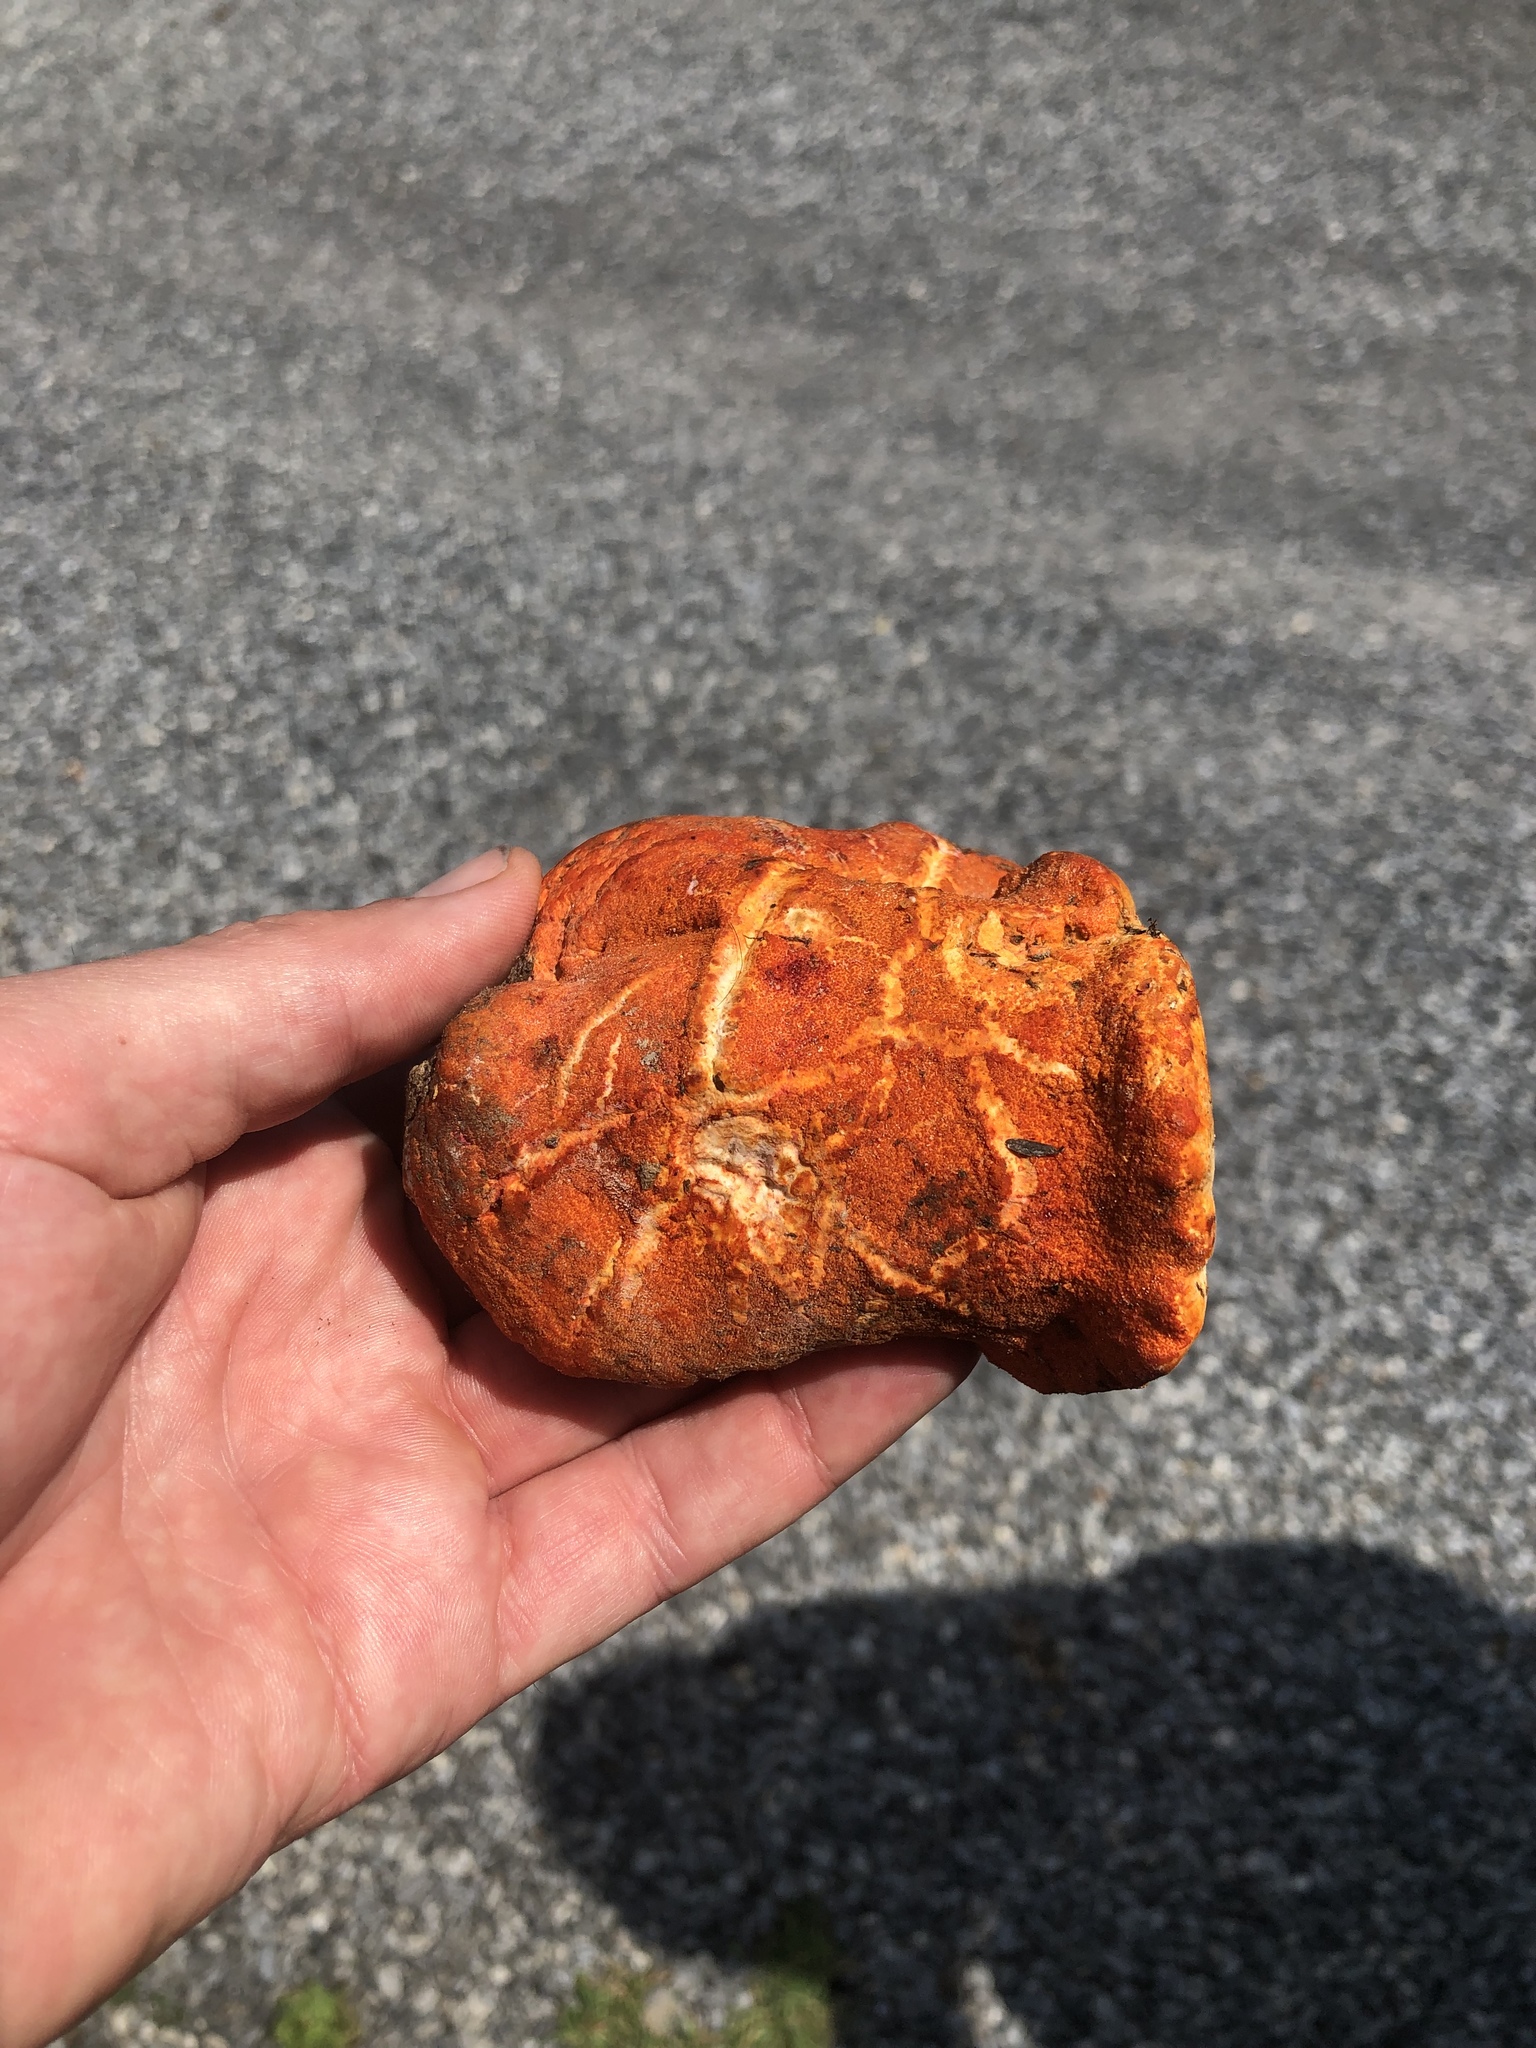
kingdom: Fungi
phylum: Ascomycota
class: Sordariomycetes
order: Hypocreales
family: Hypocreaceae
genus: Hypomyces
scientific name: Hypomyces lactifluorum
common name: Lobster mushroom
